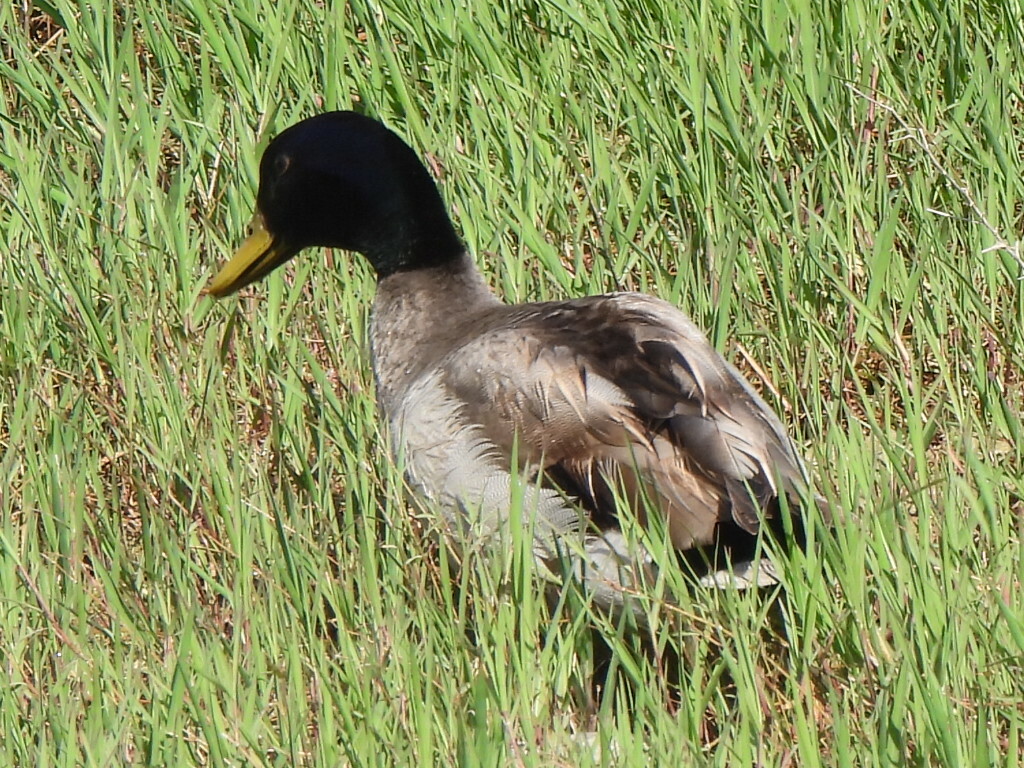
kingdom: Animalia
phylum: Chordata
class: Aves
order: Anseriformes
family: Anatidae
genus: Anas
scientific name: Anas platyrhynchos
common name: Mallard
